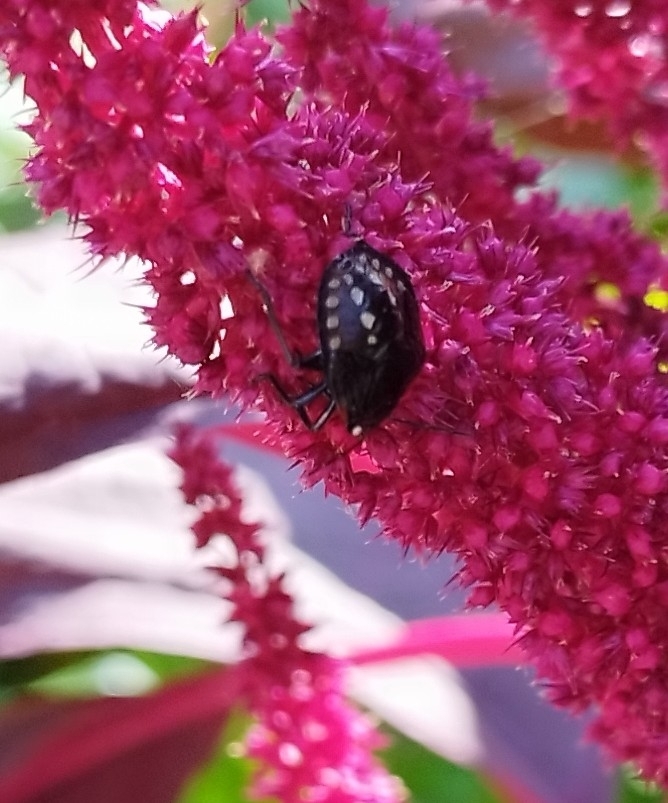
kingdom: Animalia
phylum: Arthropoda
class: Insecta
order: Hemiptera
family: Pentatomidae
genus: Nezara
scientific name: Nezara viridula
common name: Southern green stink bug
